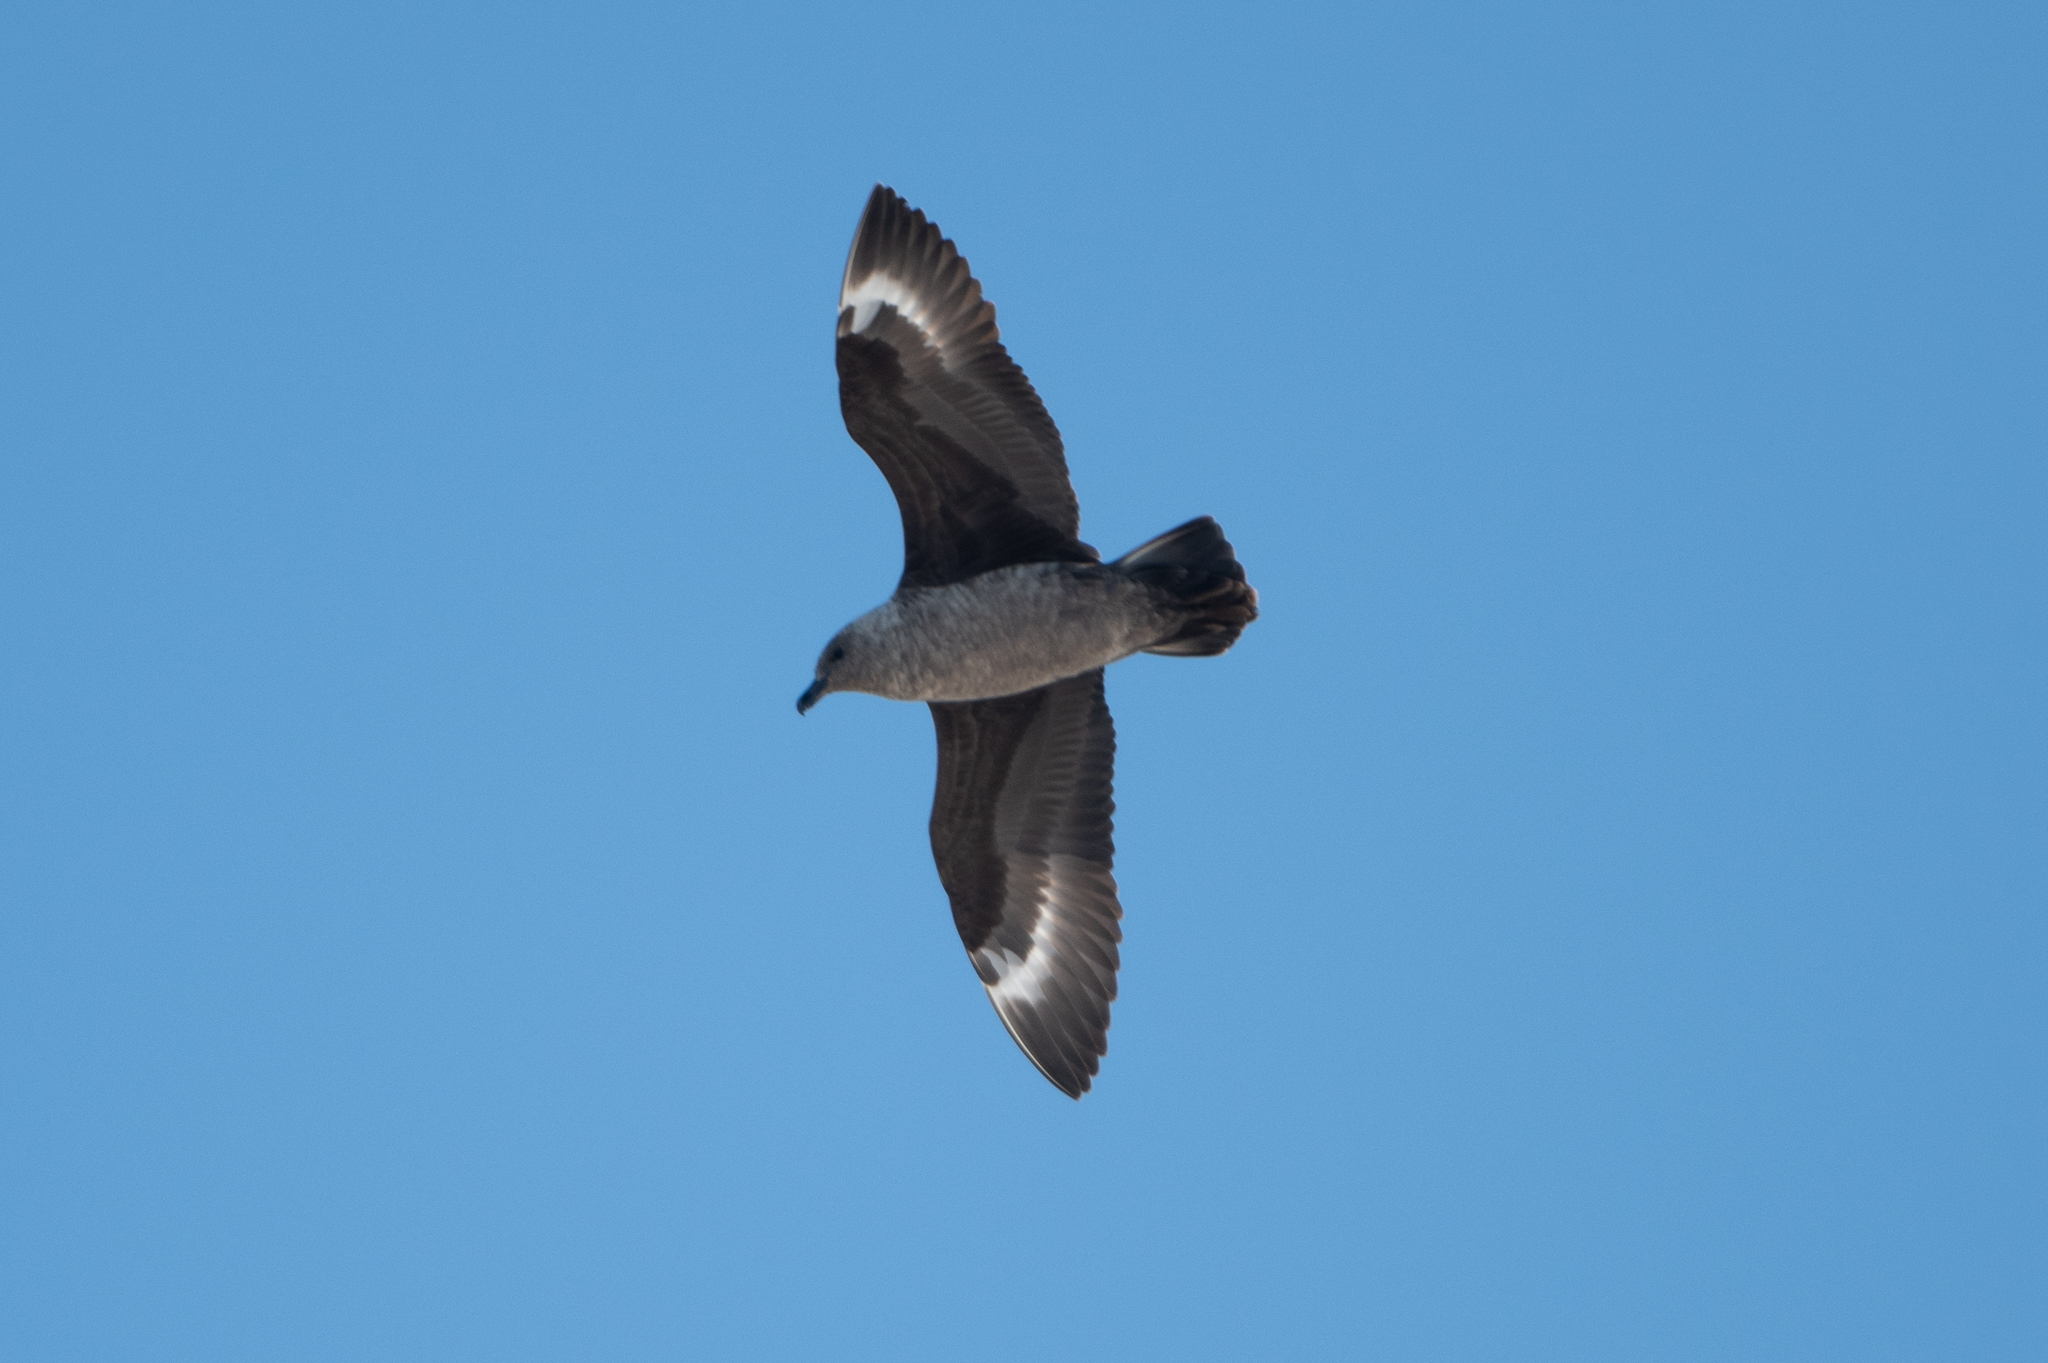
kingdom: Animalia
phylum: Chordata
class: Aves
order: Charadriiformes
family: Stercorariidae
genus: Stercorarius
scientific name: Stercorarius maccormicki
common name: South polar skua
